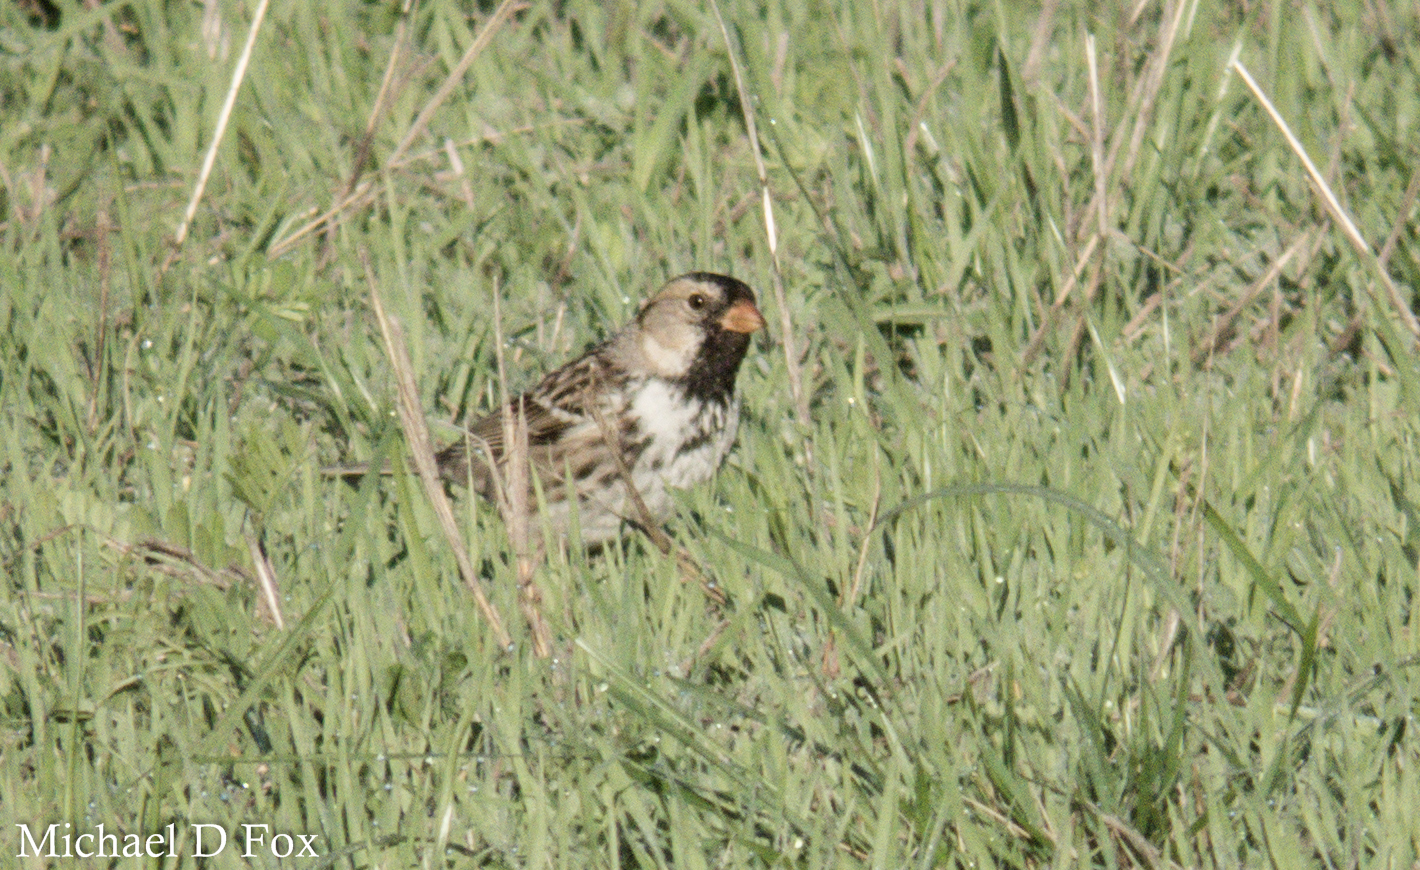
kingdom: Animalia
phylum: Chordata
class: Aves
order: Passeriformes
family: Passerellidae
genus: Zonotrichia
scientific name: Zonotrichia querula
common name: Harris's sparrow
